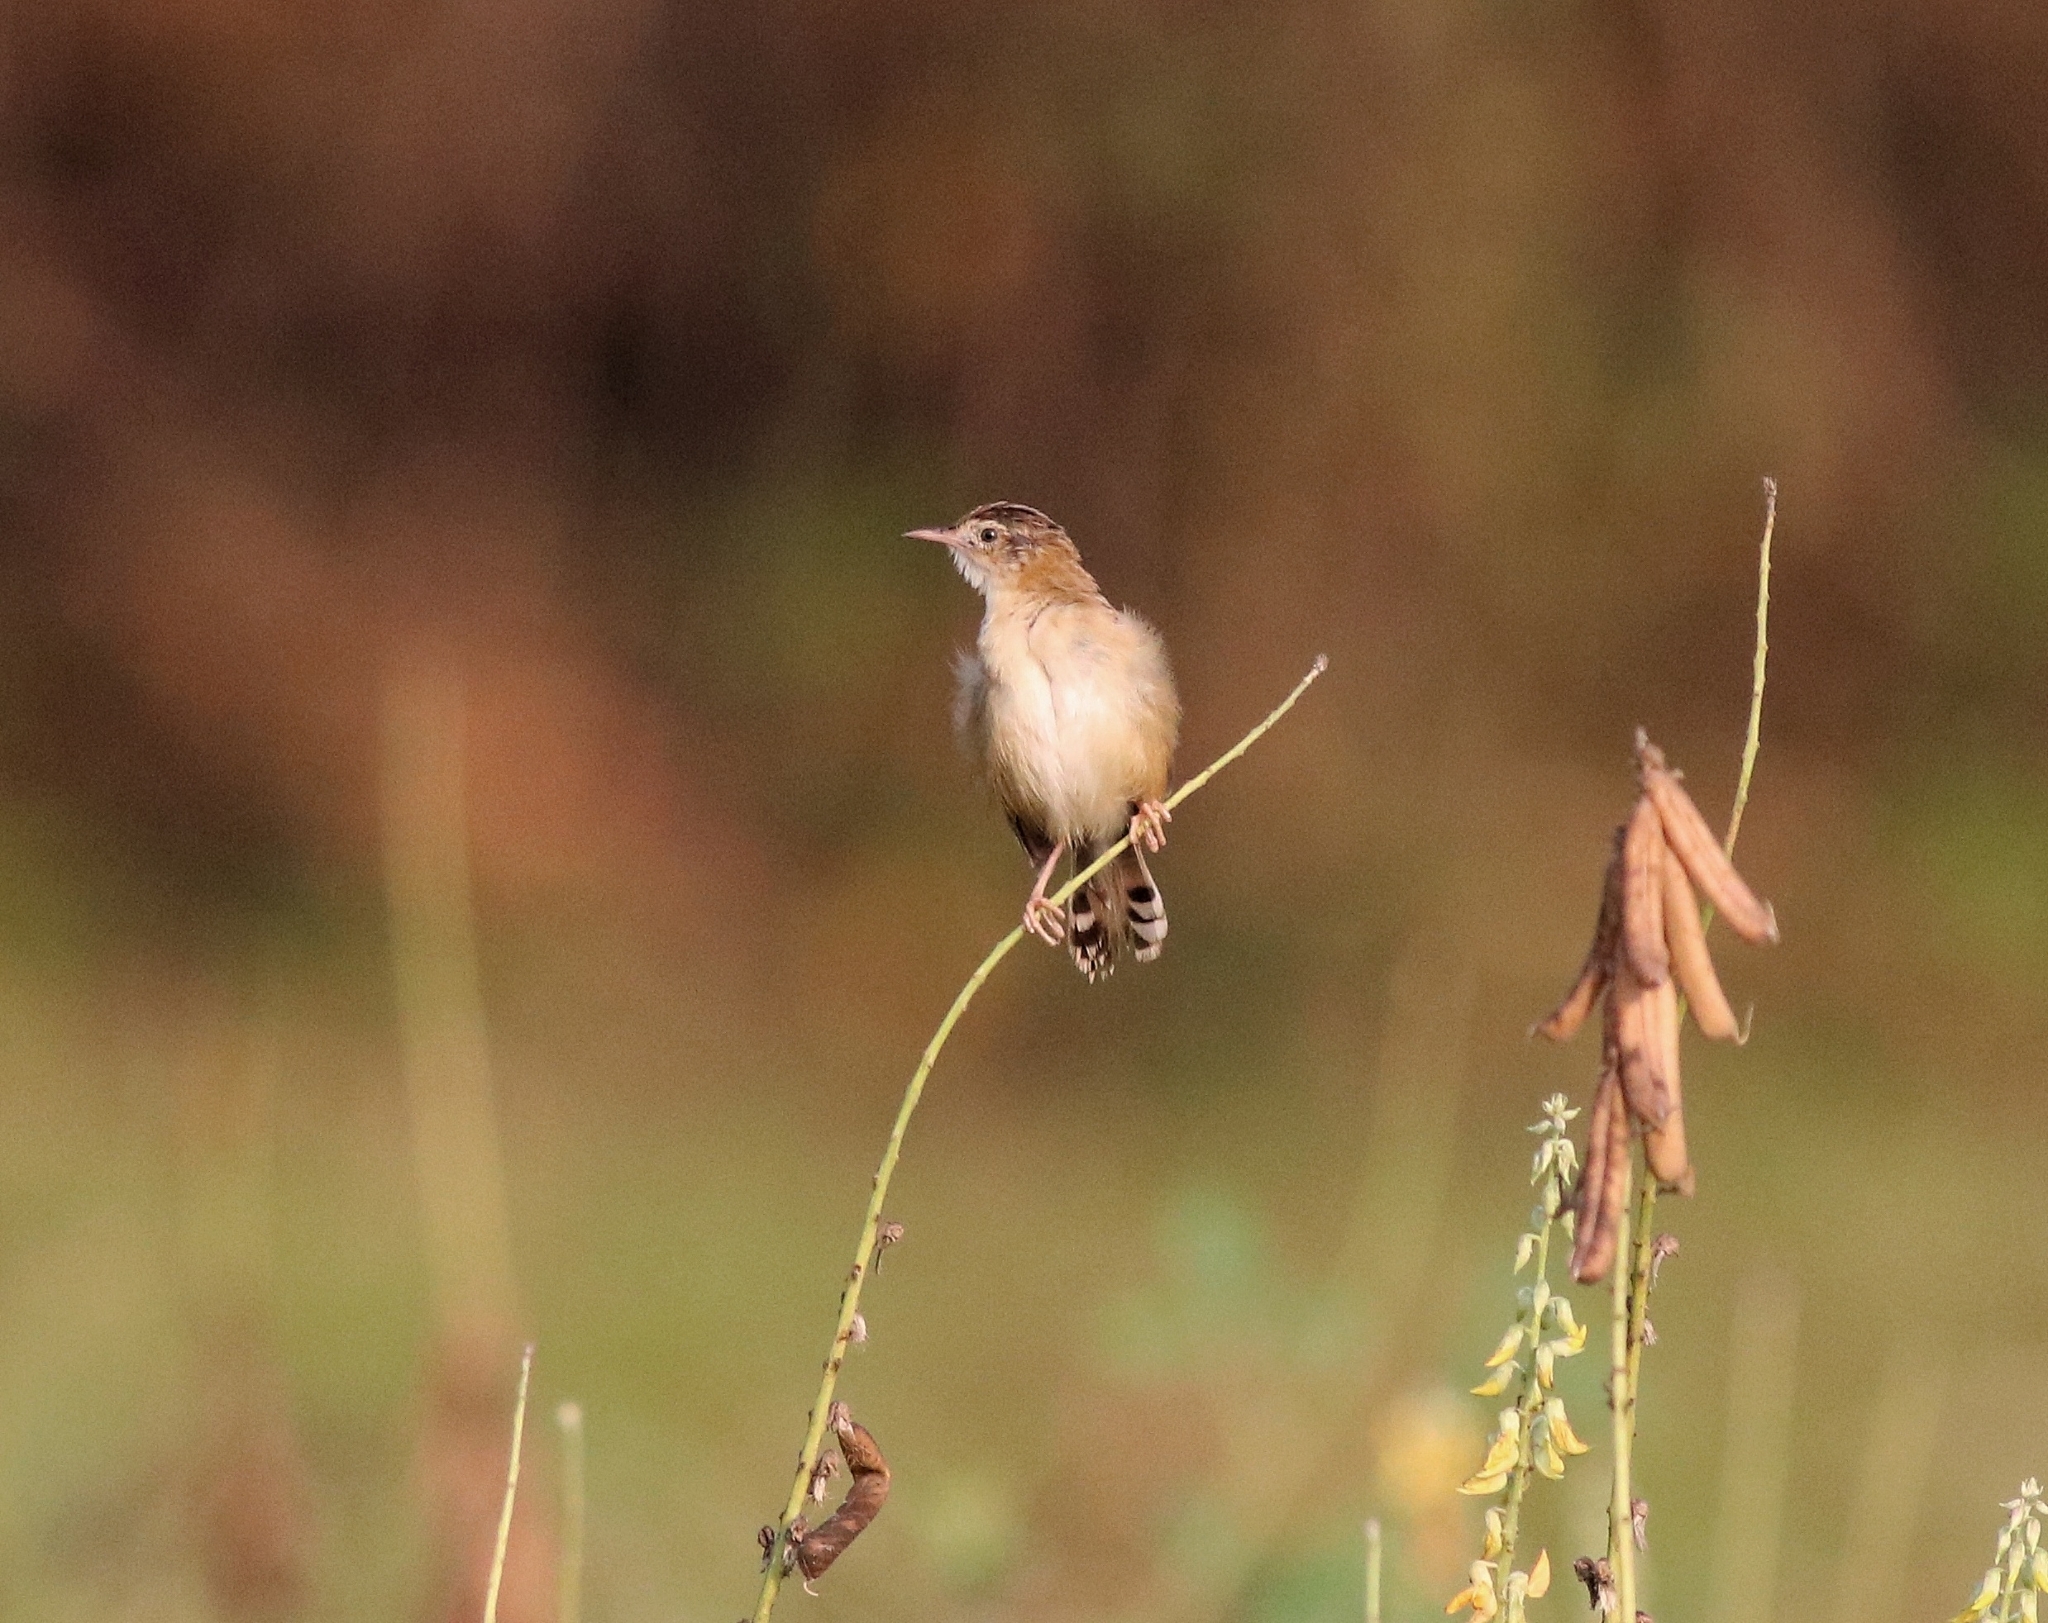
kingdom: Animalia
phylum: Chordata
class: Aves
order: Passeriformes
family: Cisticolidae
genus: Cisticola
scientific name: Cisticola juncidis
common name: Zitting cisticola
